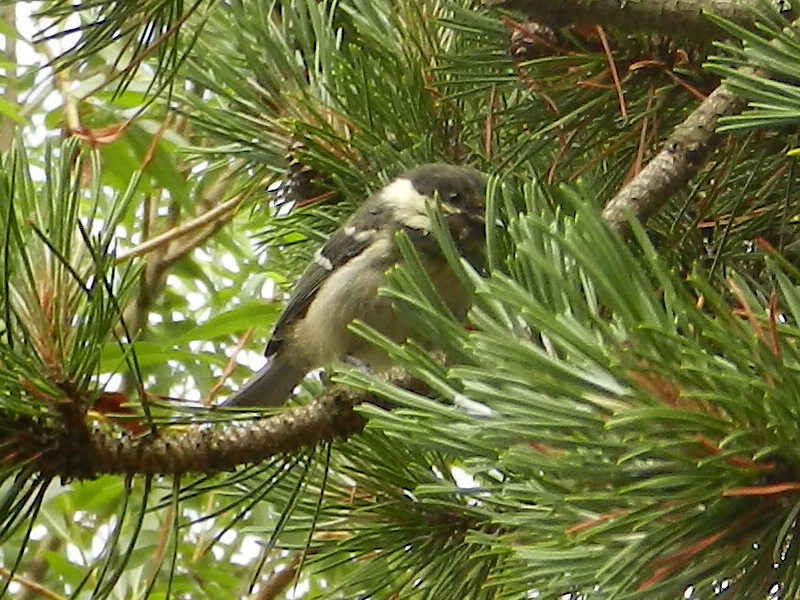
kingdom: Animalia
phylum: Chordata
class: Aves
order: Passeriformes
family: Paridae
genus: Periparus
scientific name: Periparus ater
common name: Coal tit
